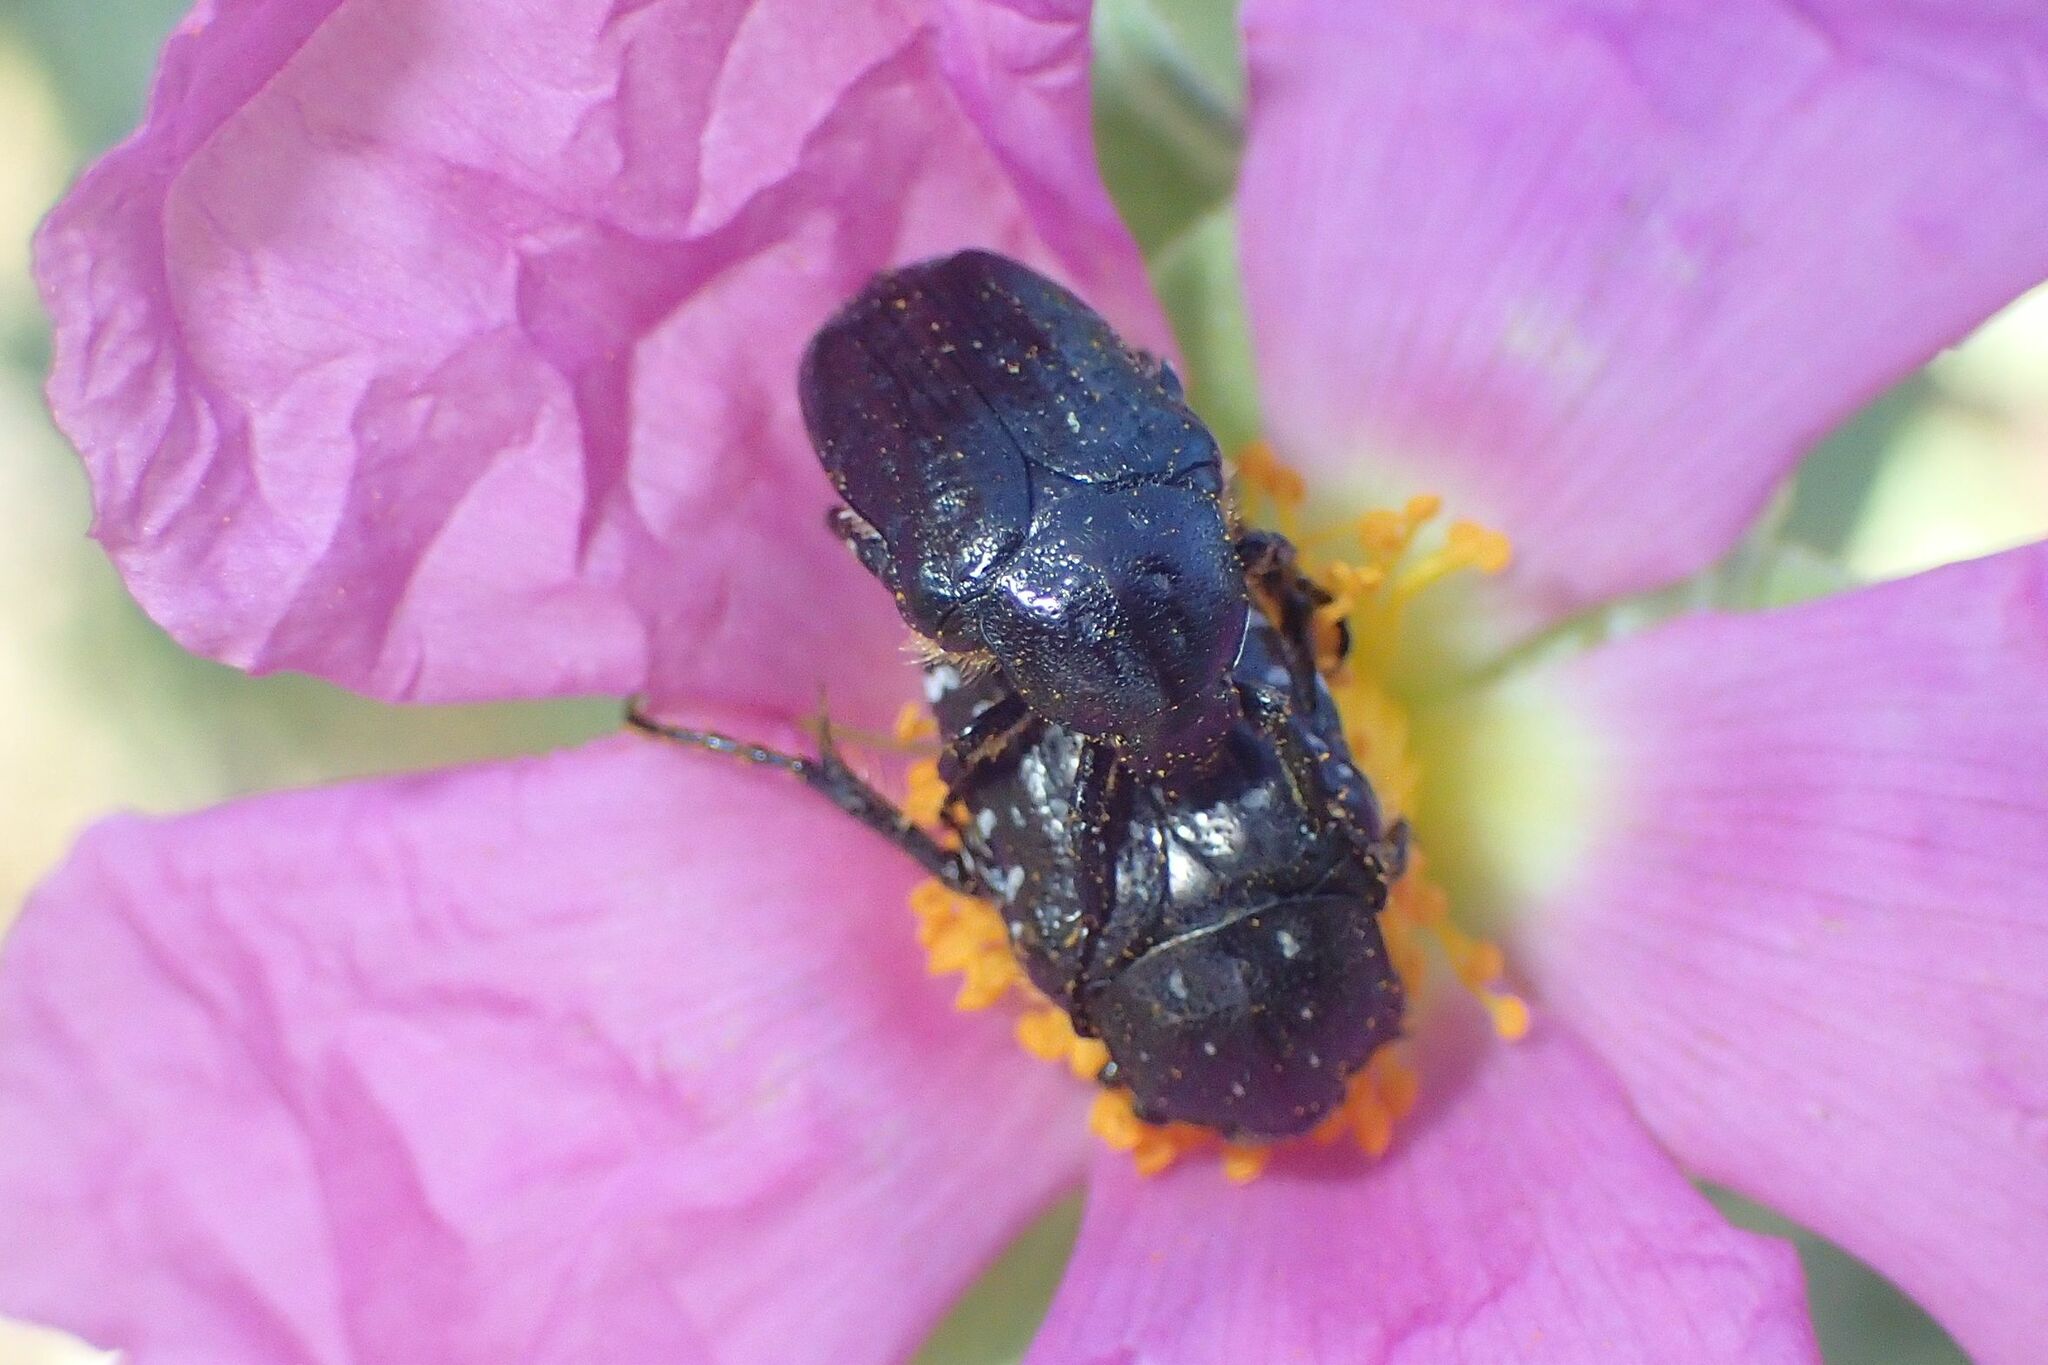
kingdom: Animalia
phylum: Arthropoda
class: Insecta
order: Coleoptera
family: Scarabaeidae
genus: Oxythyrea
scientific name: Oxythyrea funesta
